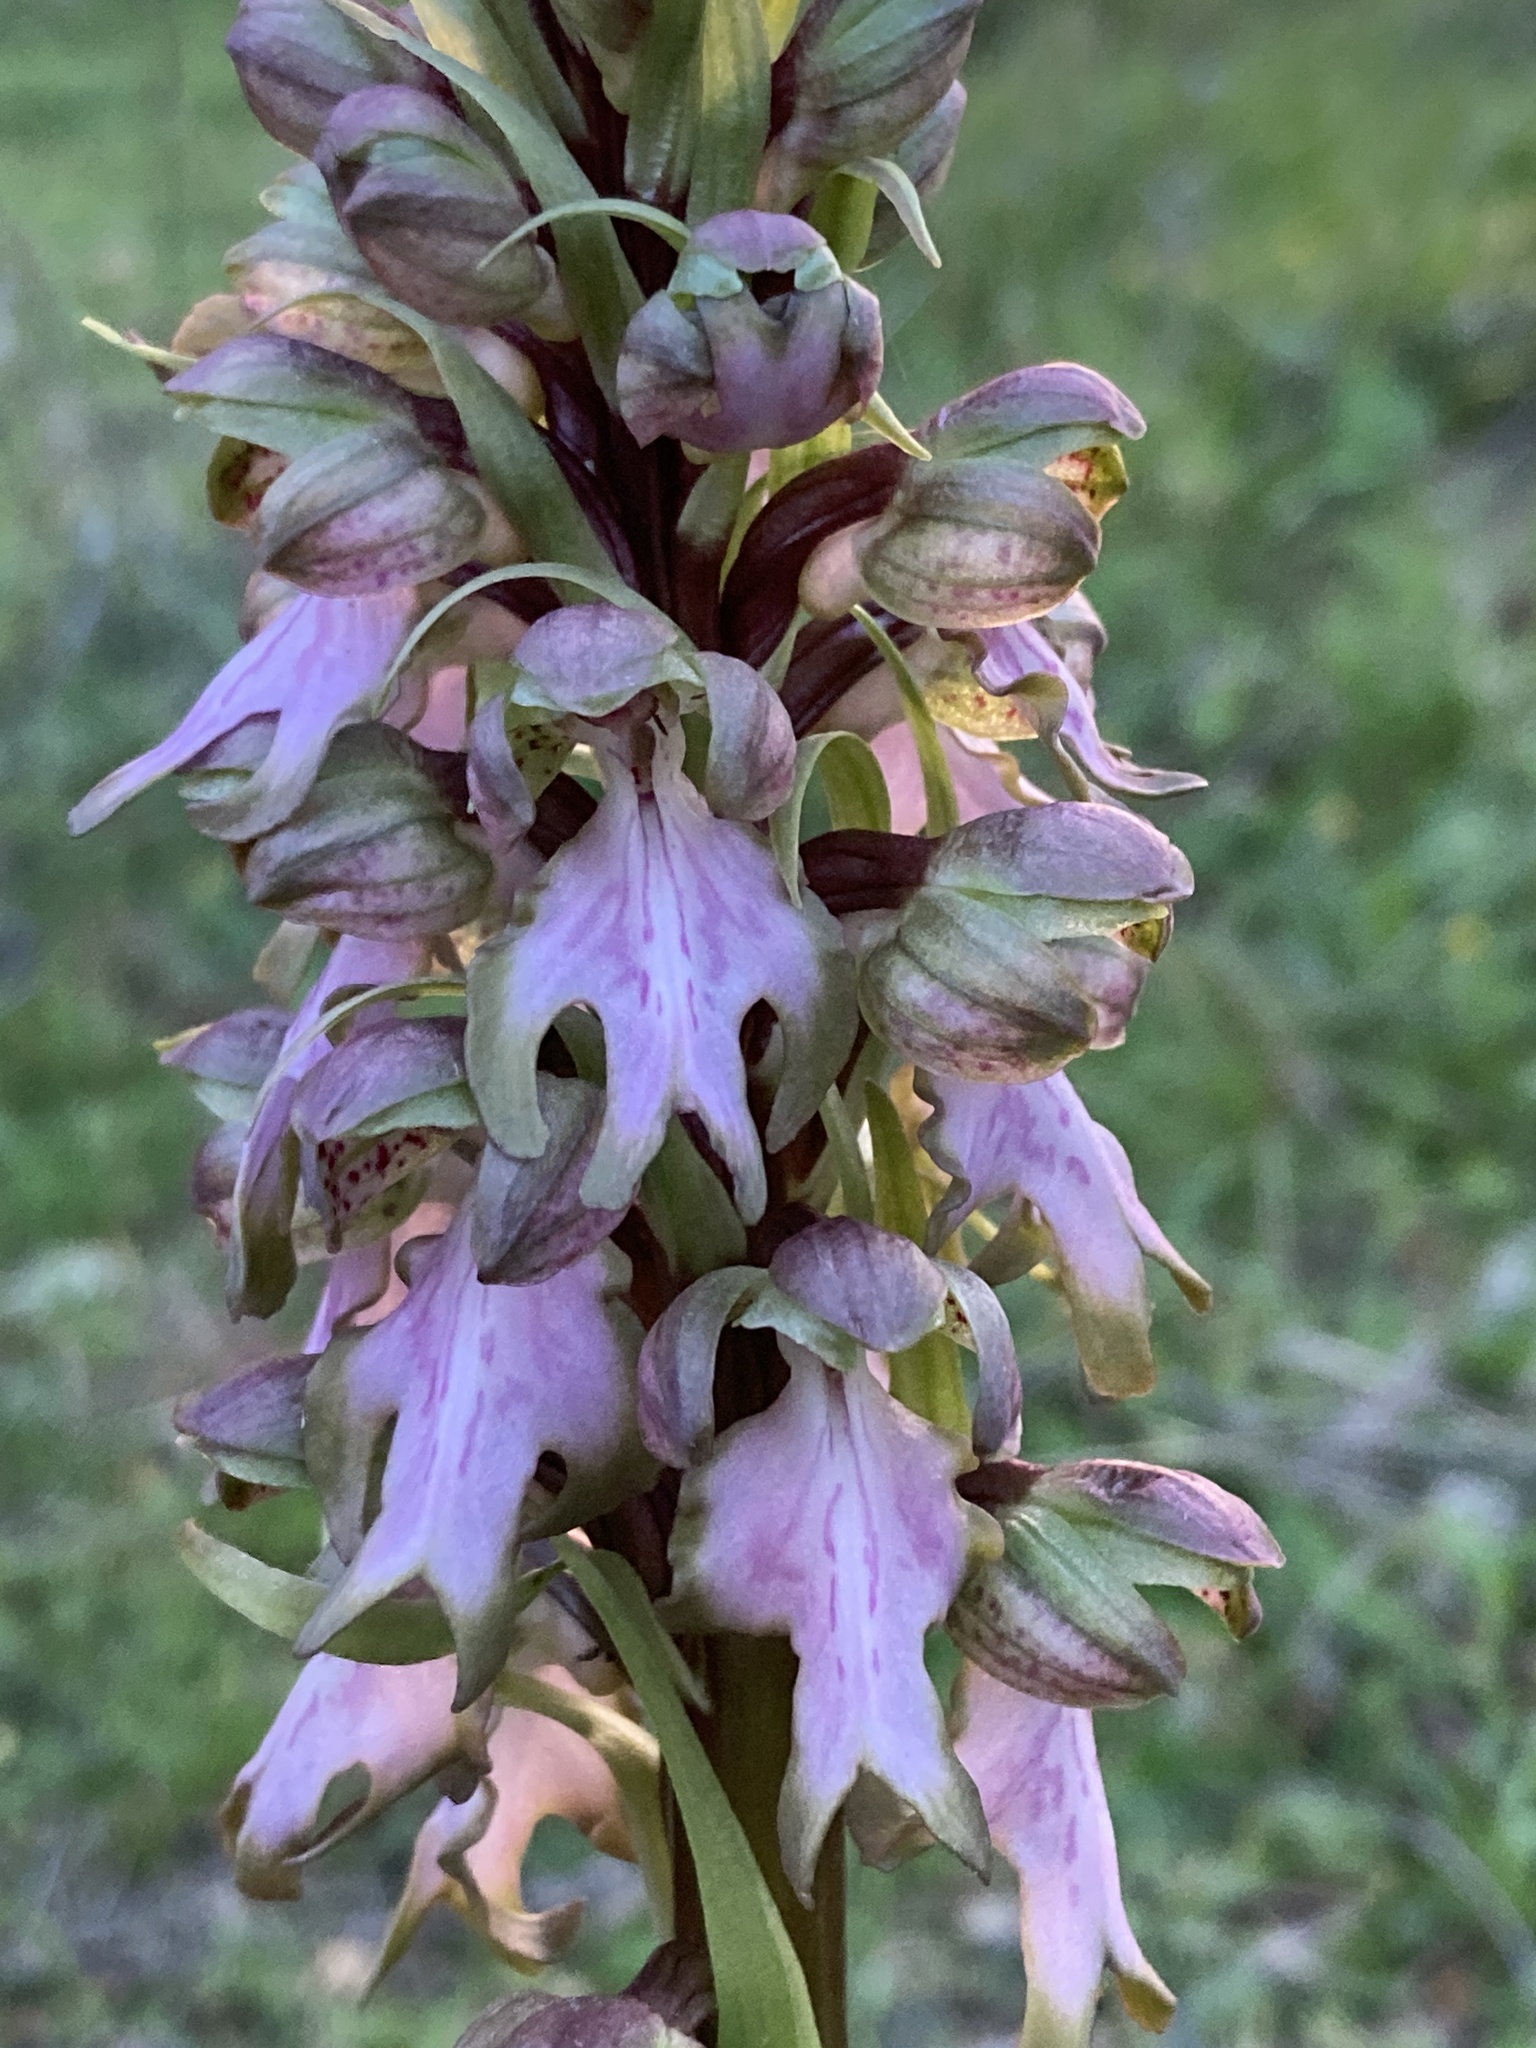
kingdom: Plantae
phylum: Tracheophyta
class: Liliopsida
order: Asparagales
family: Orchidaceae
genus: Himantoglossum
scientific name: Himantoglossum robertianum
